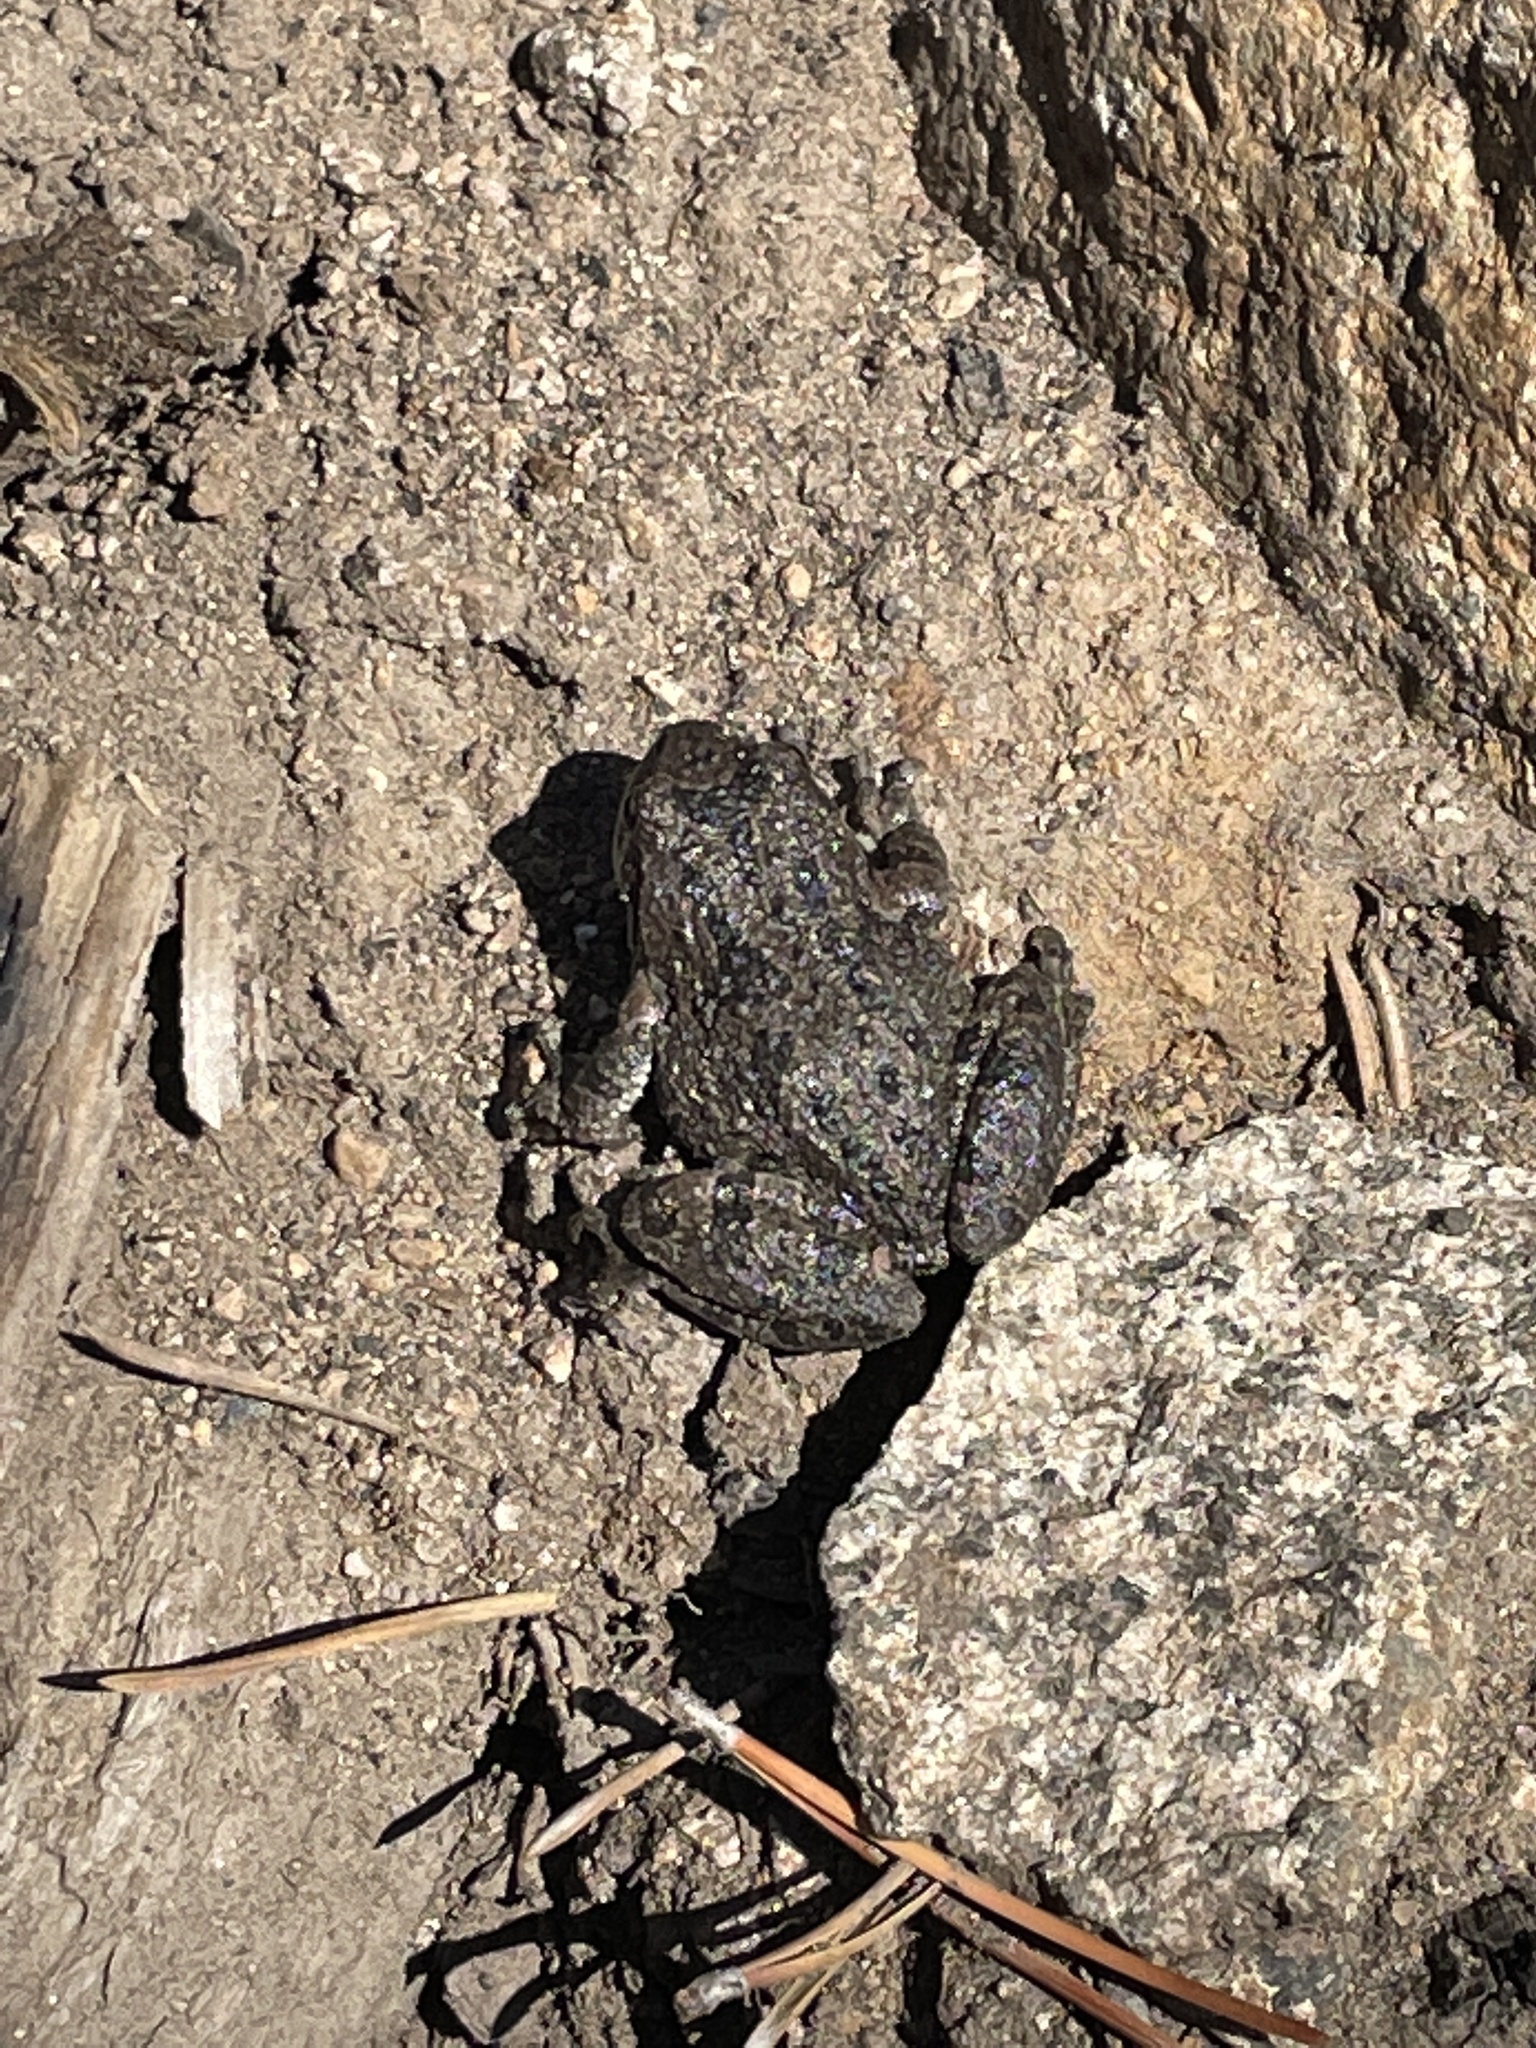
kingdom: Animalia
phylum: Chordata
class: Amphibia
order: Anura
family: Hylidae
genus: Pseudacris
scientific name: Pseudacris regilla
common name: Pacific chorus frog
